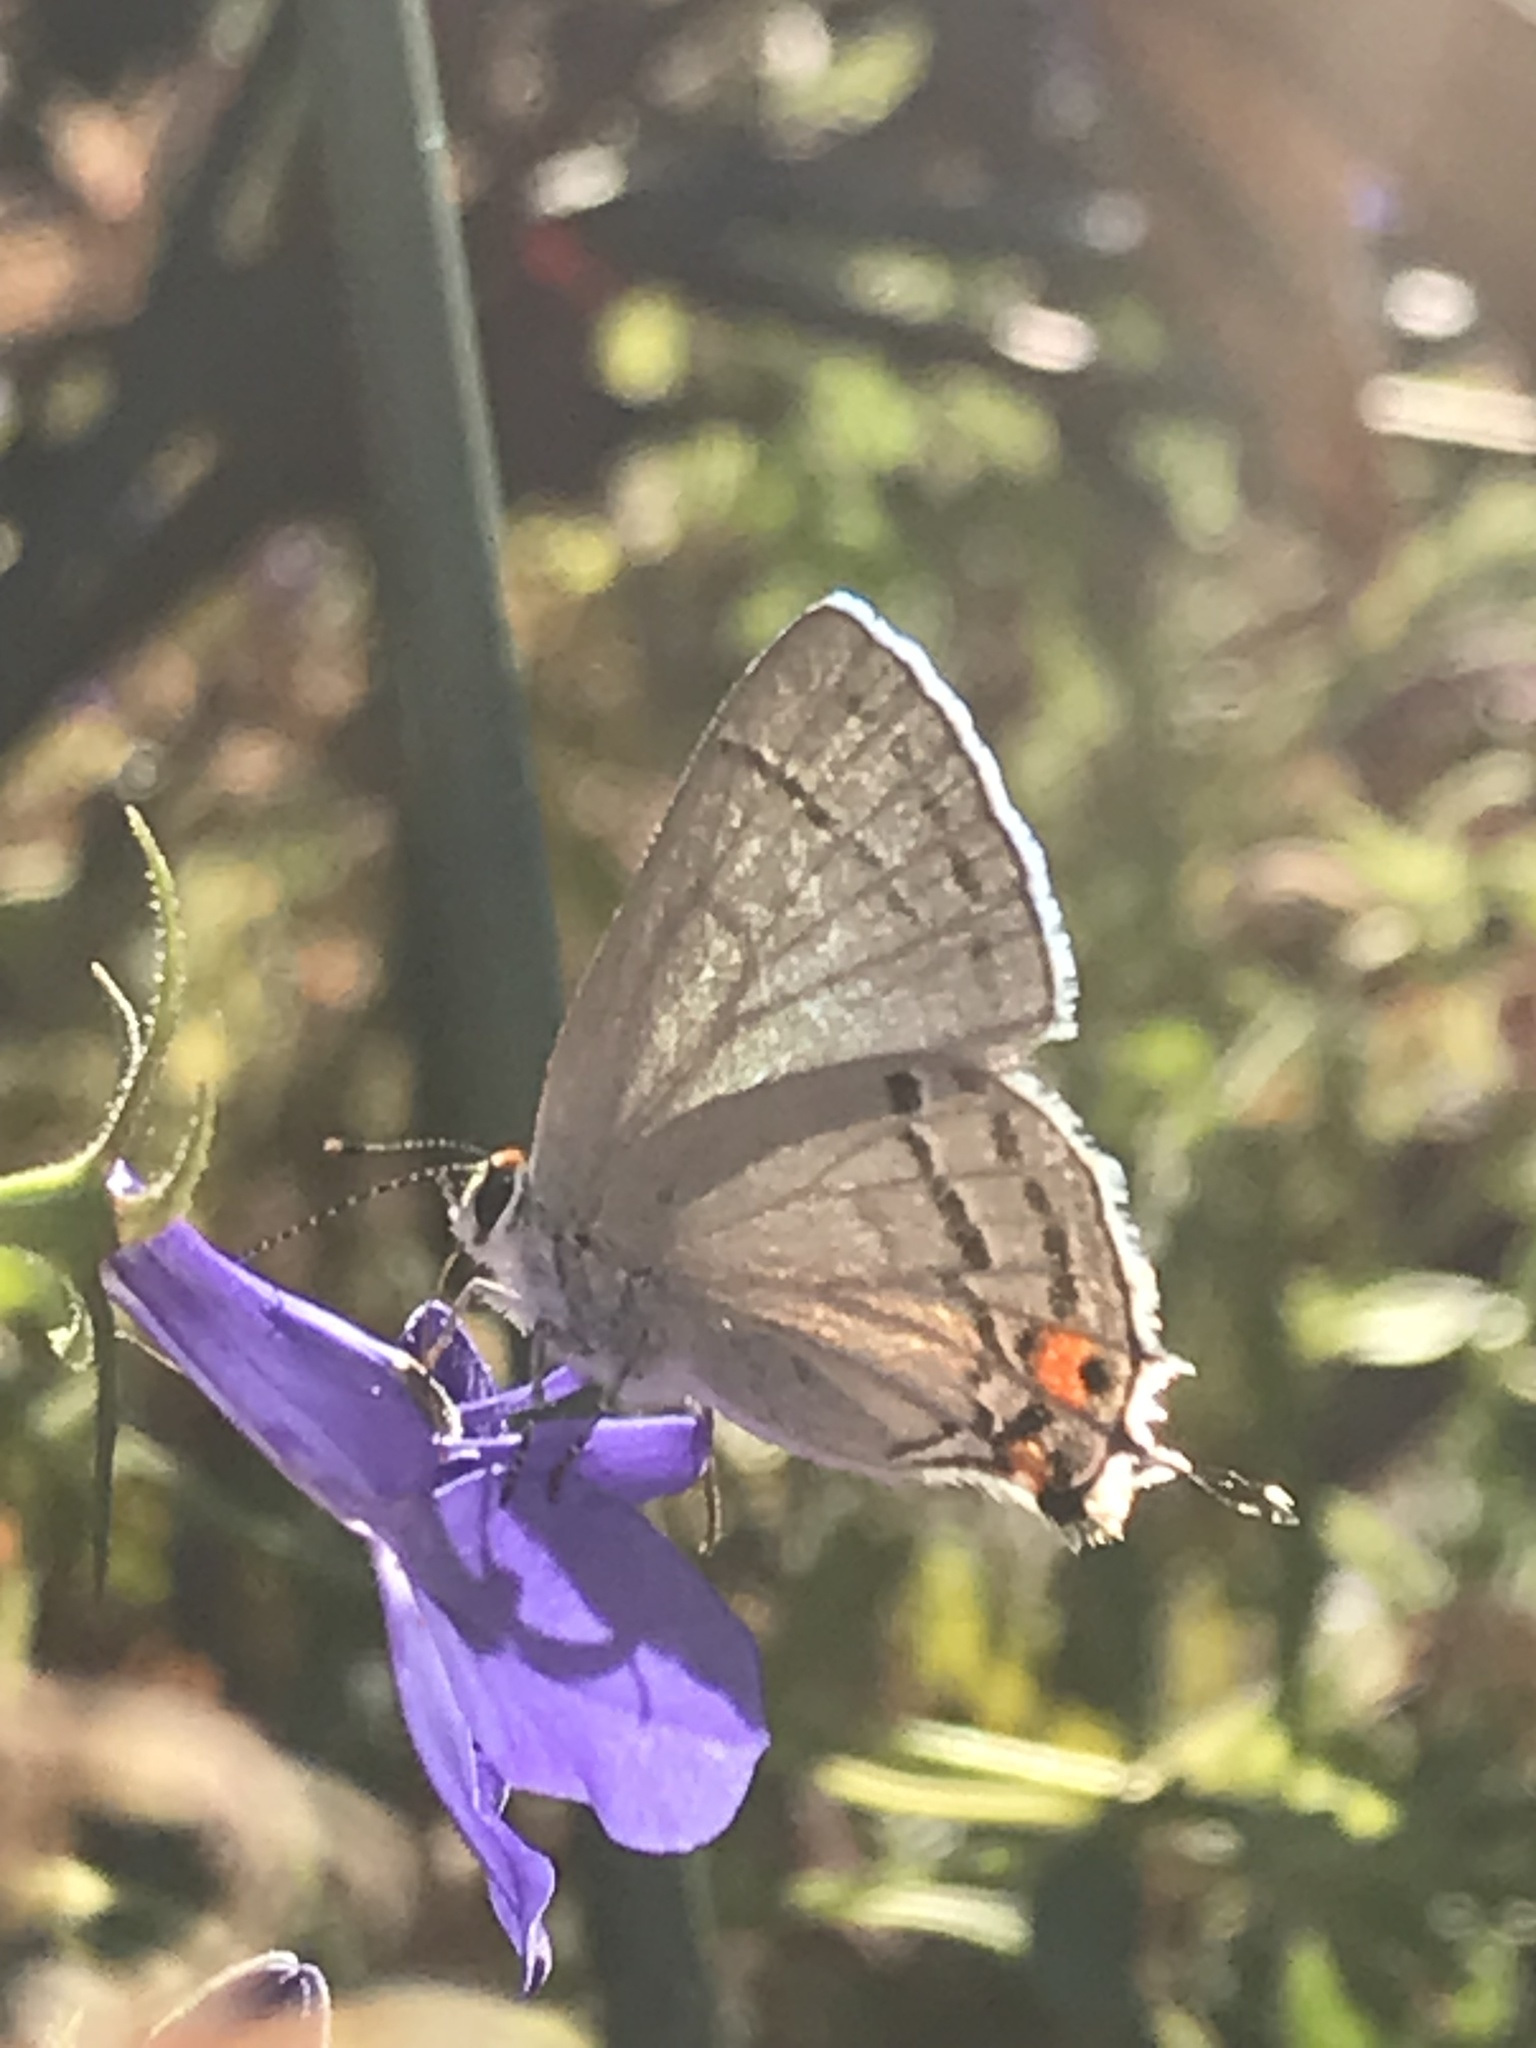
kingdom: Animalia
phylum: Arthropoda
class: Insecta
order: Lepidoptera
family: Lycaenidae
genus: Strymon
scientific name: Strymon melinus
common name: Gray hairstreak
